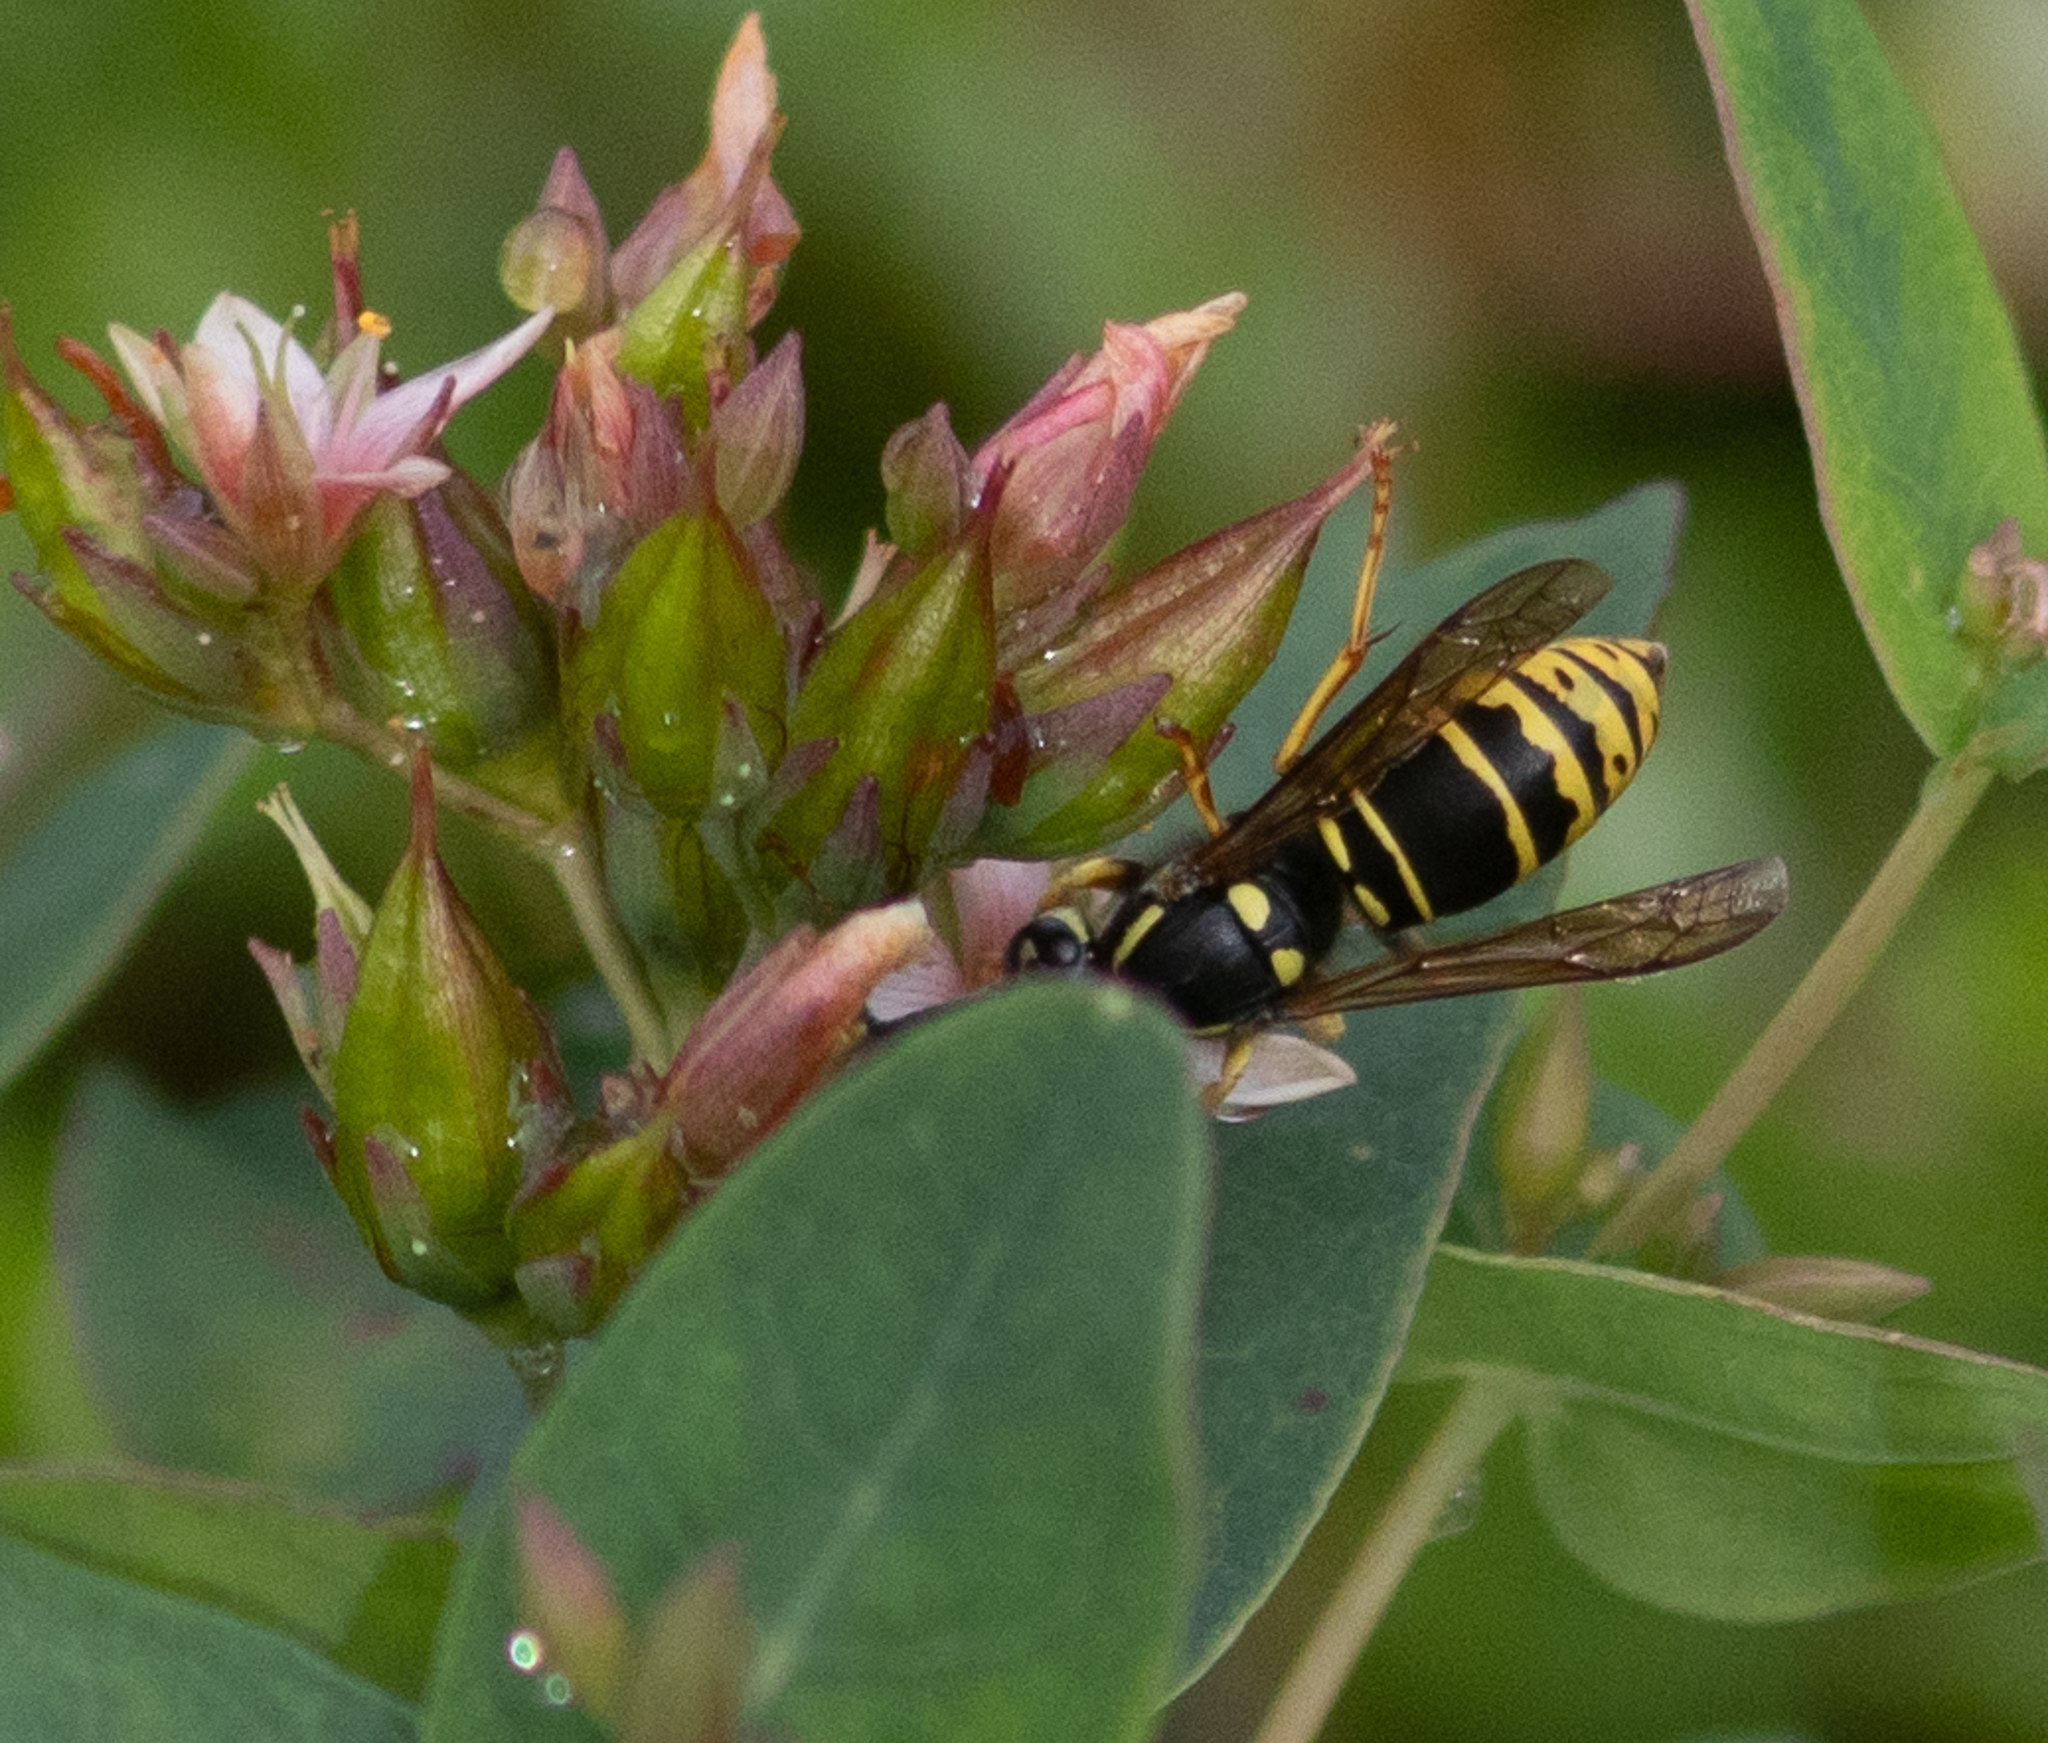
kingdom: Animalia
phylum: Arthropoda
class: Insecta
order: Hymenoptera
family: Vespidae
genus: Vespula
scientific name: Vespula vidua
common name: Widow yellowjacket
